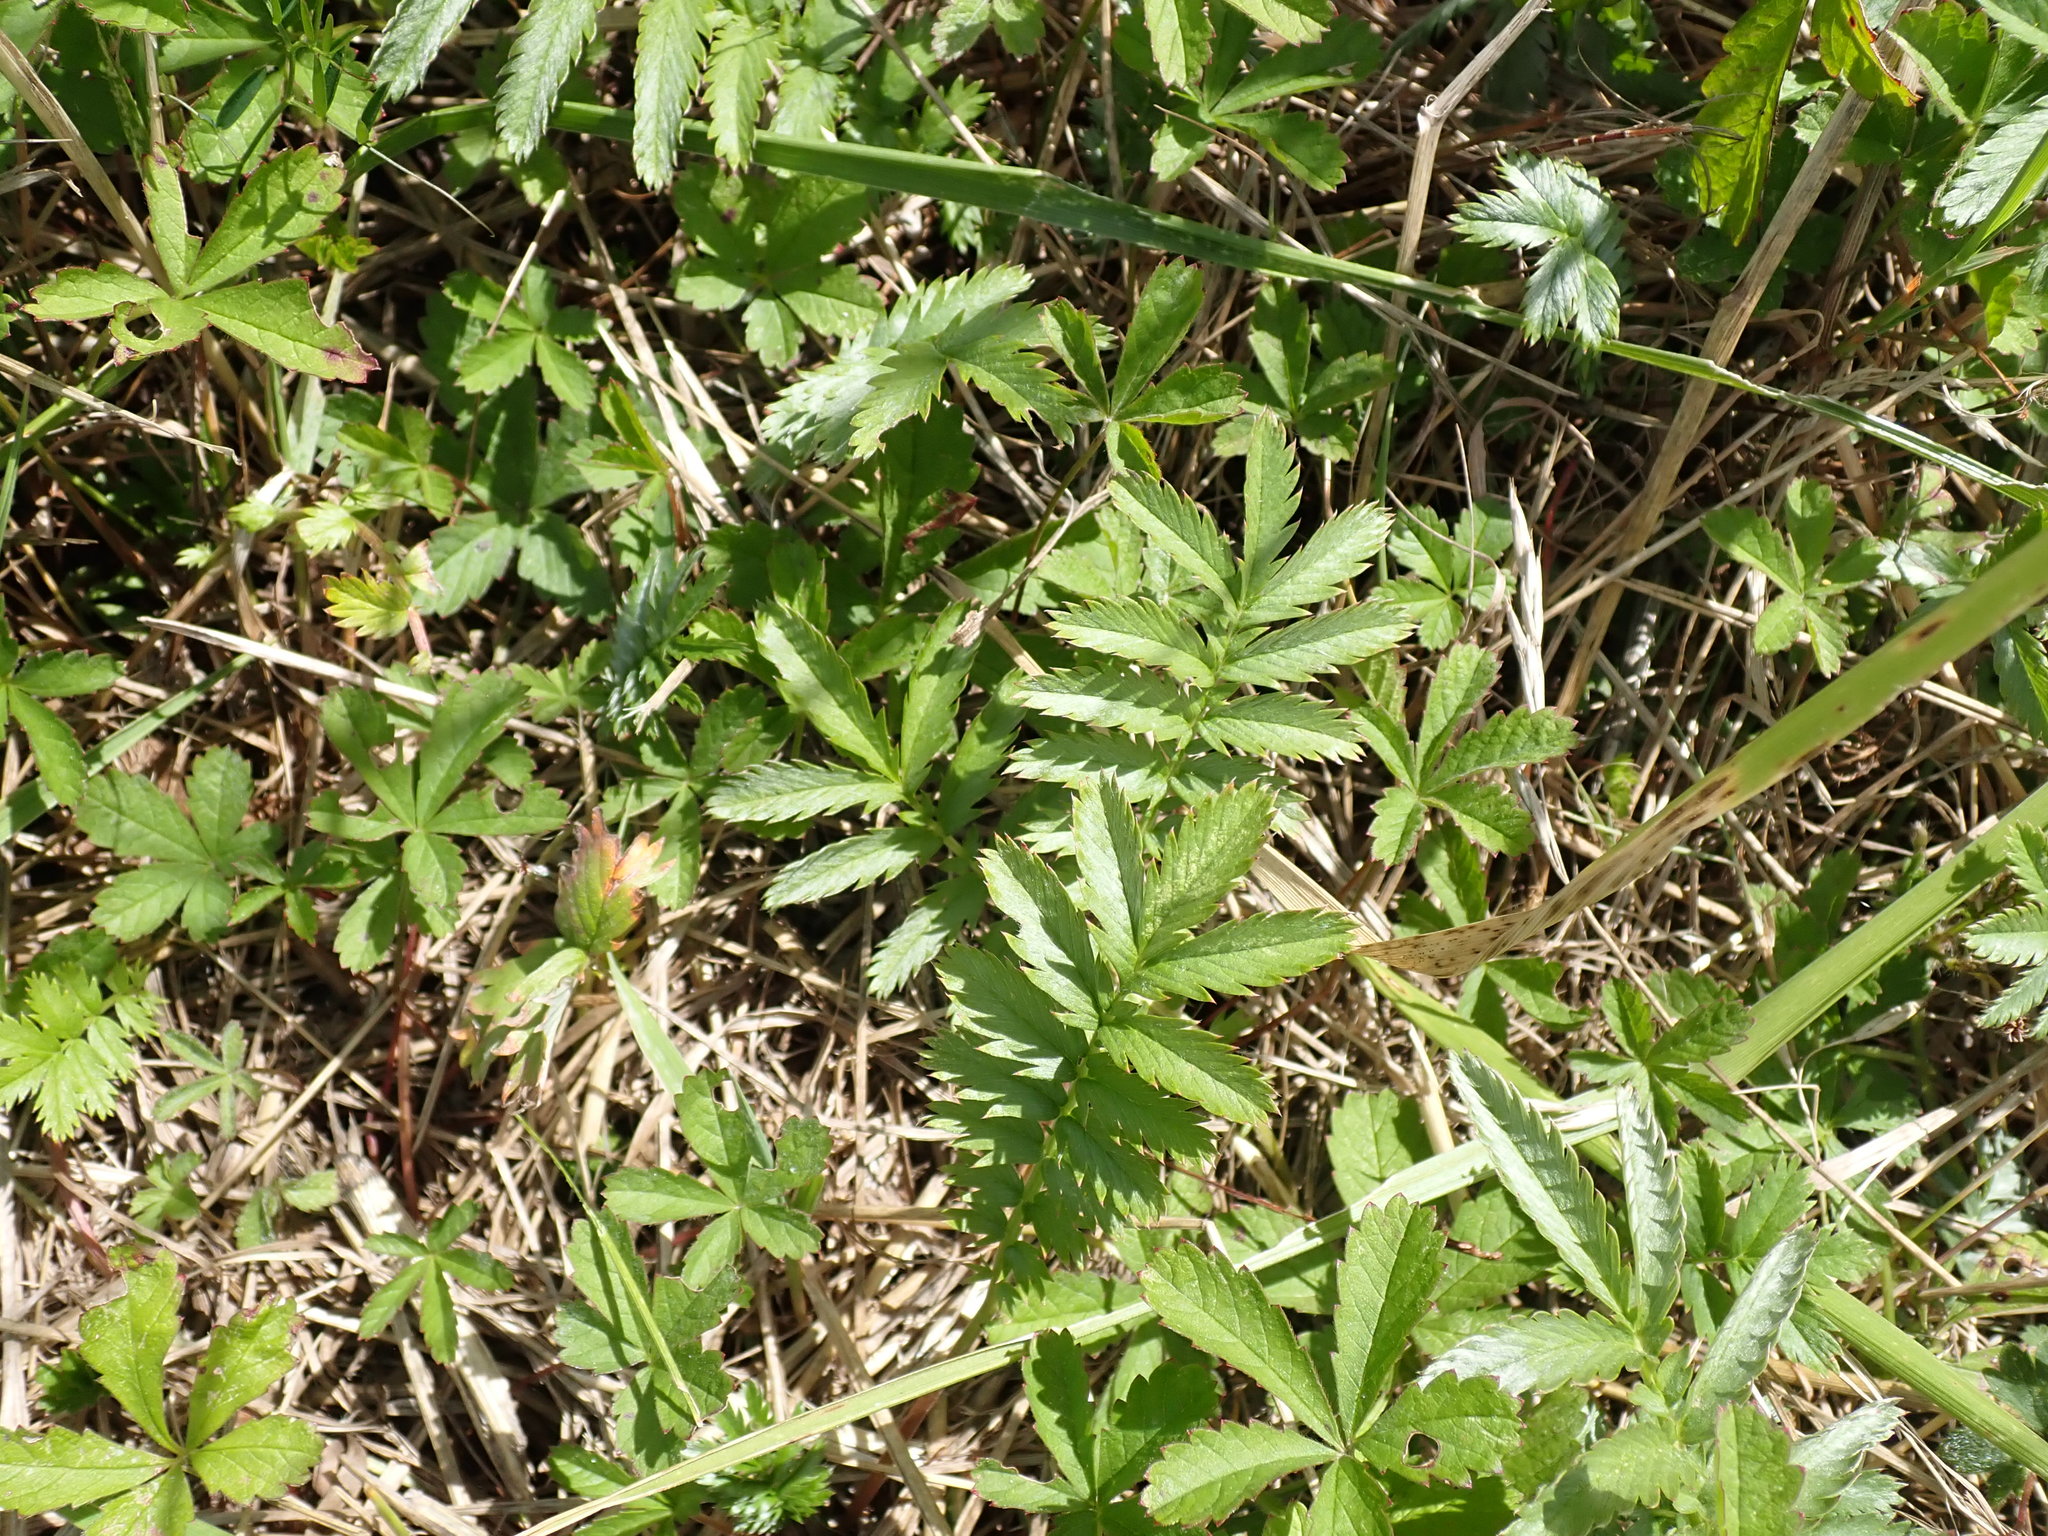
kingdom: Plantae
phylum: Tracheophyta
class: Magnoliopsida
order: Rosales
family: Rosaceae
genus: Argentina
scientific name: Argentina anserina
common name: Common silverweed
